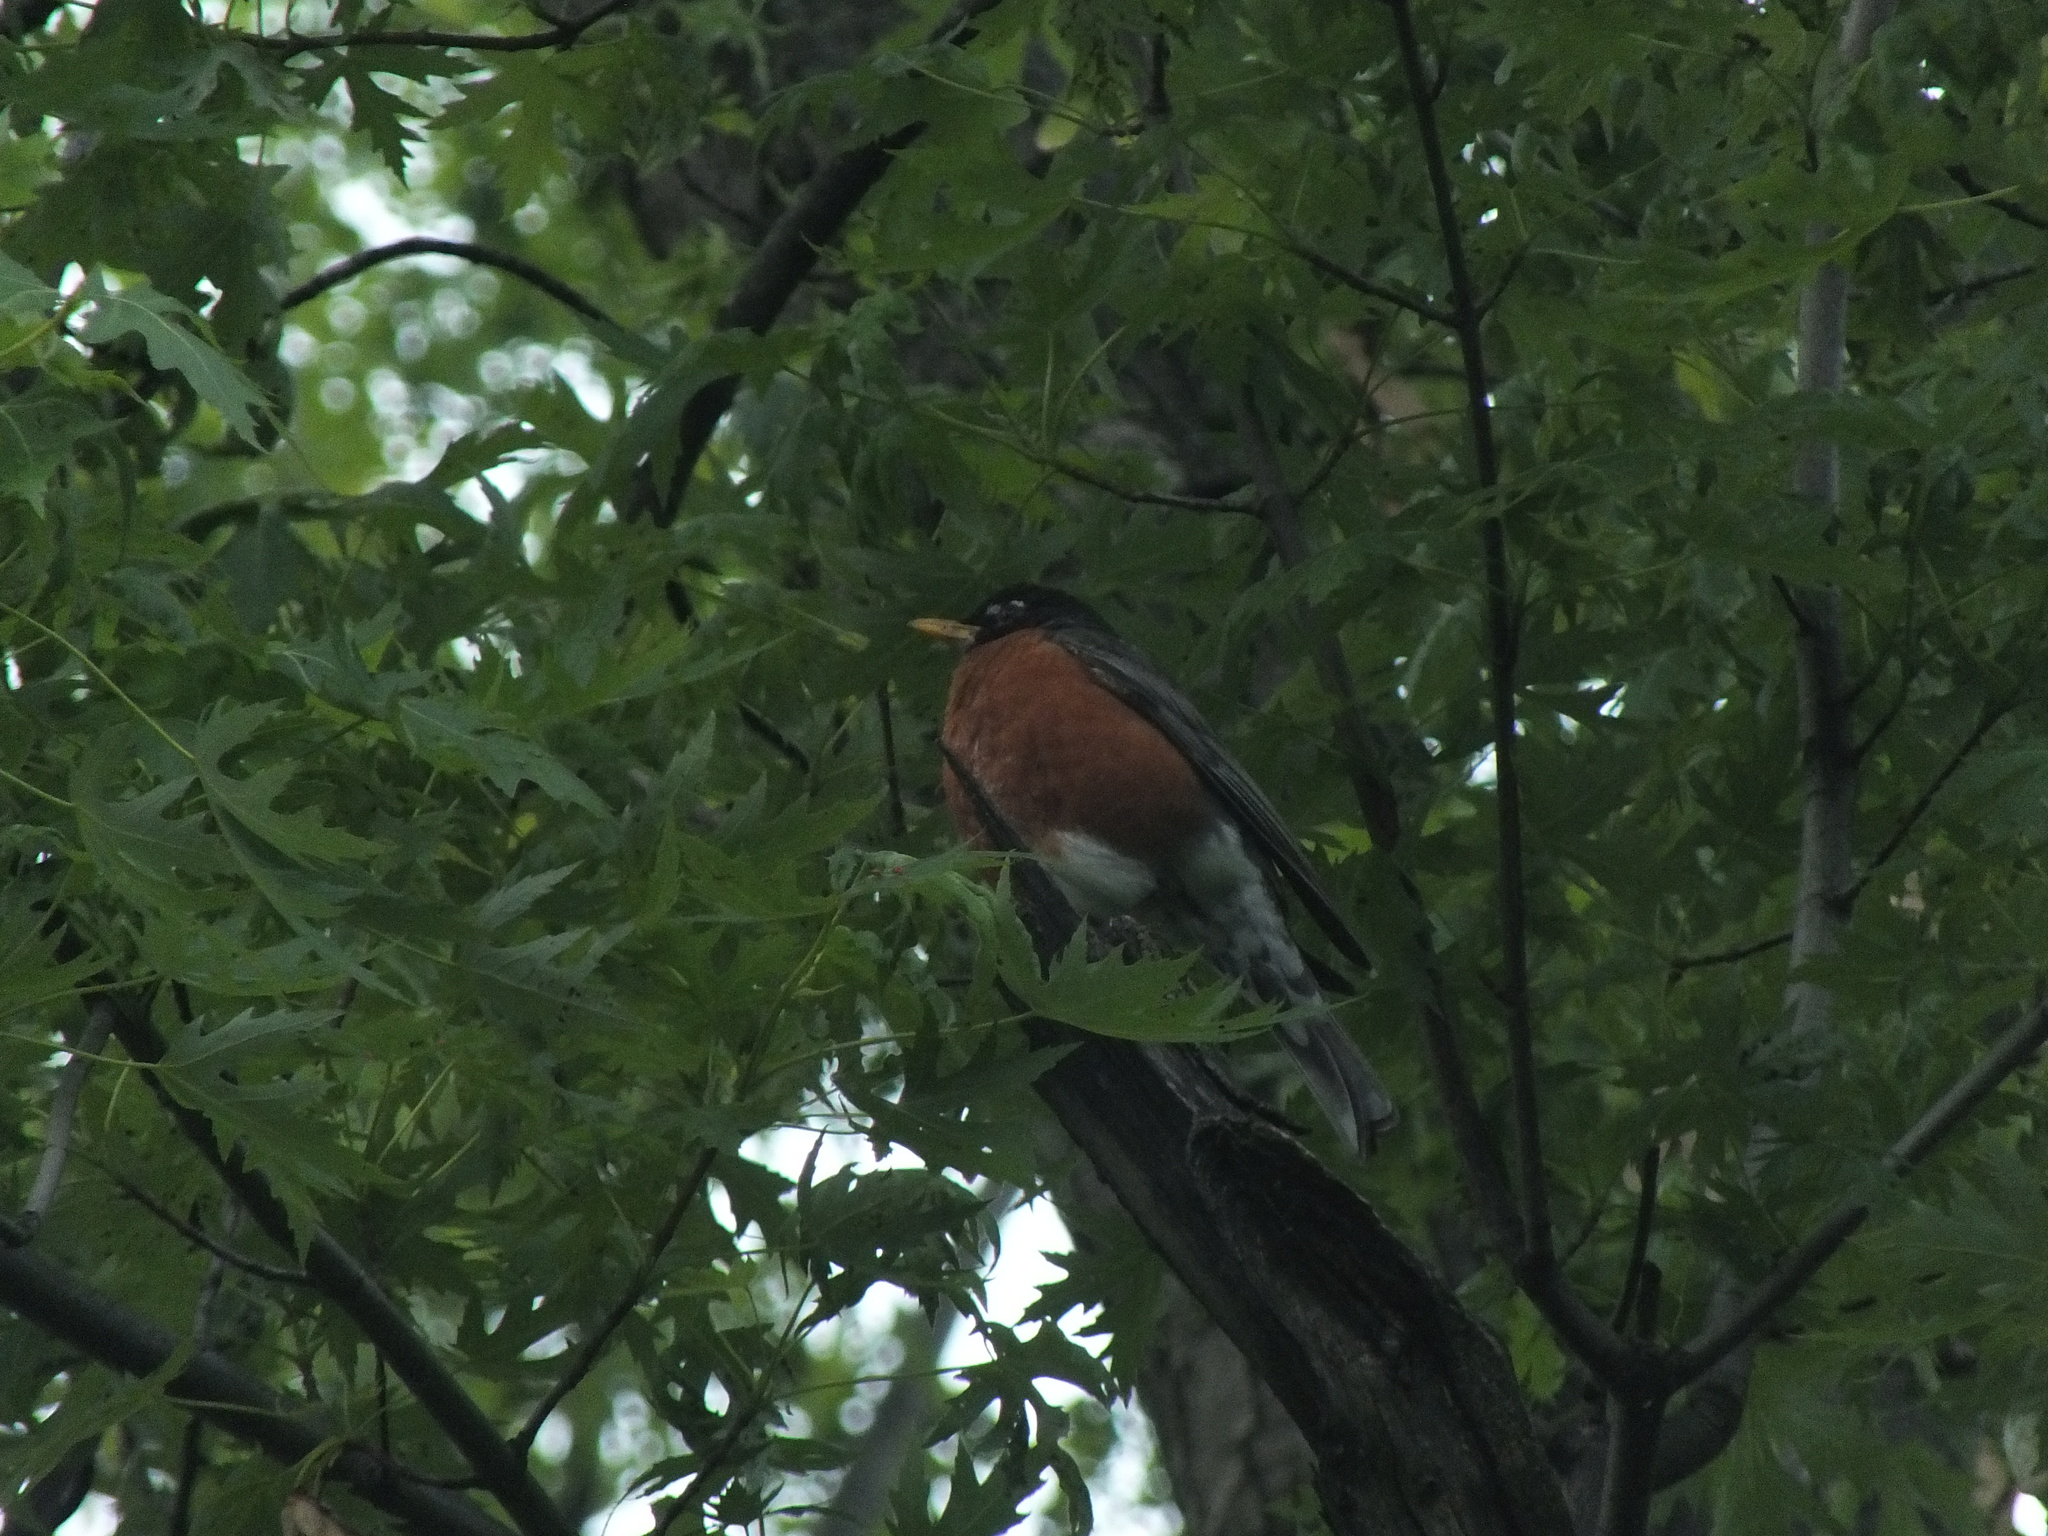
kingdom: Animalia
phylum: Chordata
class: Aves
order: Passeriformes
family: Turdidae
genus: Turdus
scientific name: Turdus migratorius
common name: American robin
